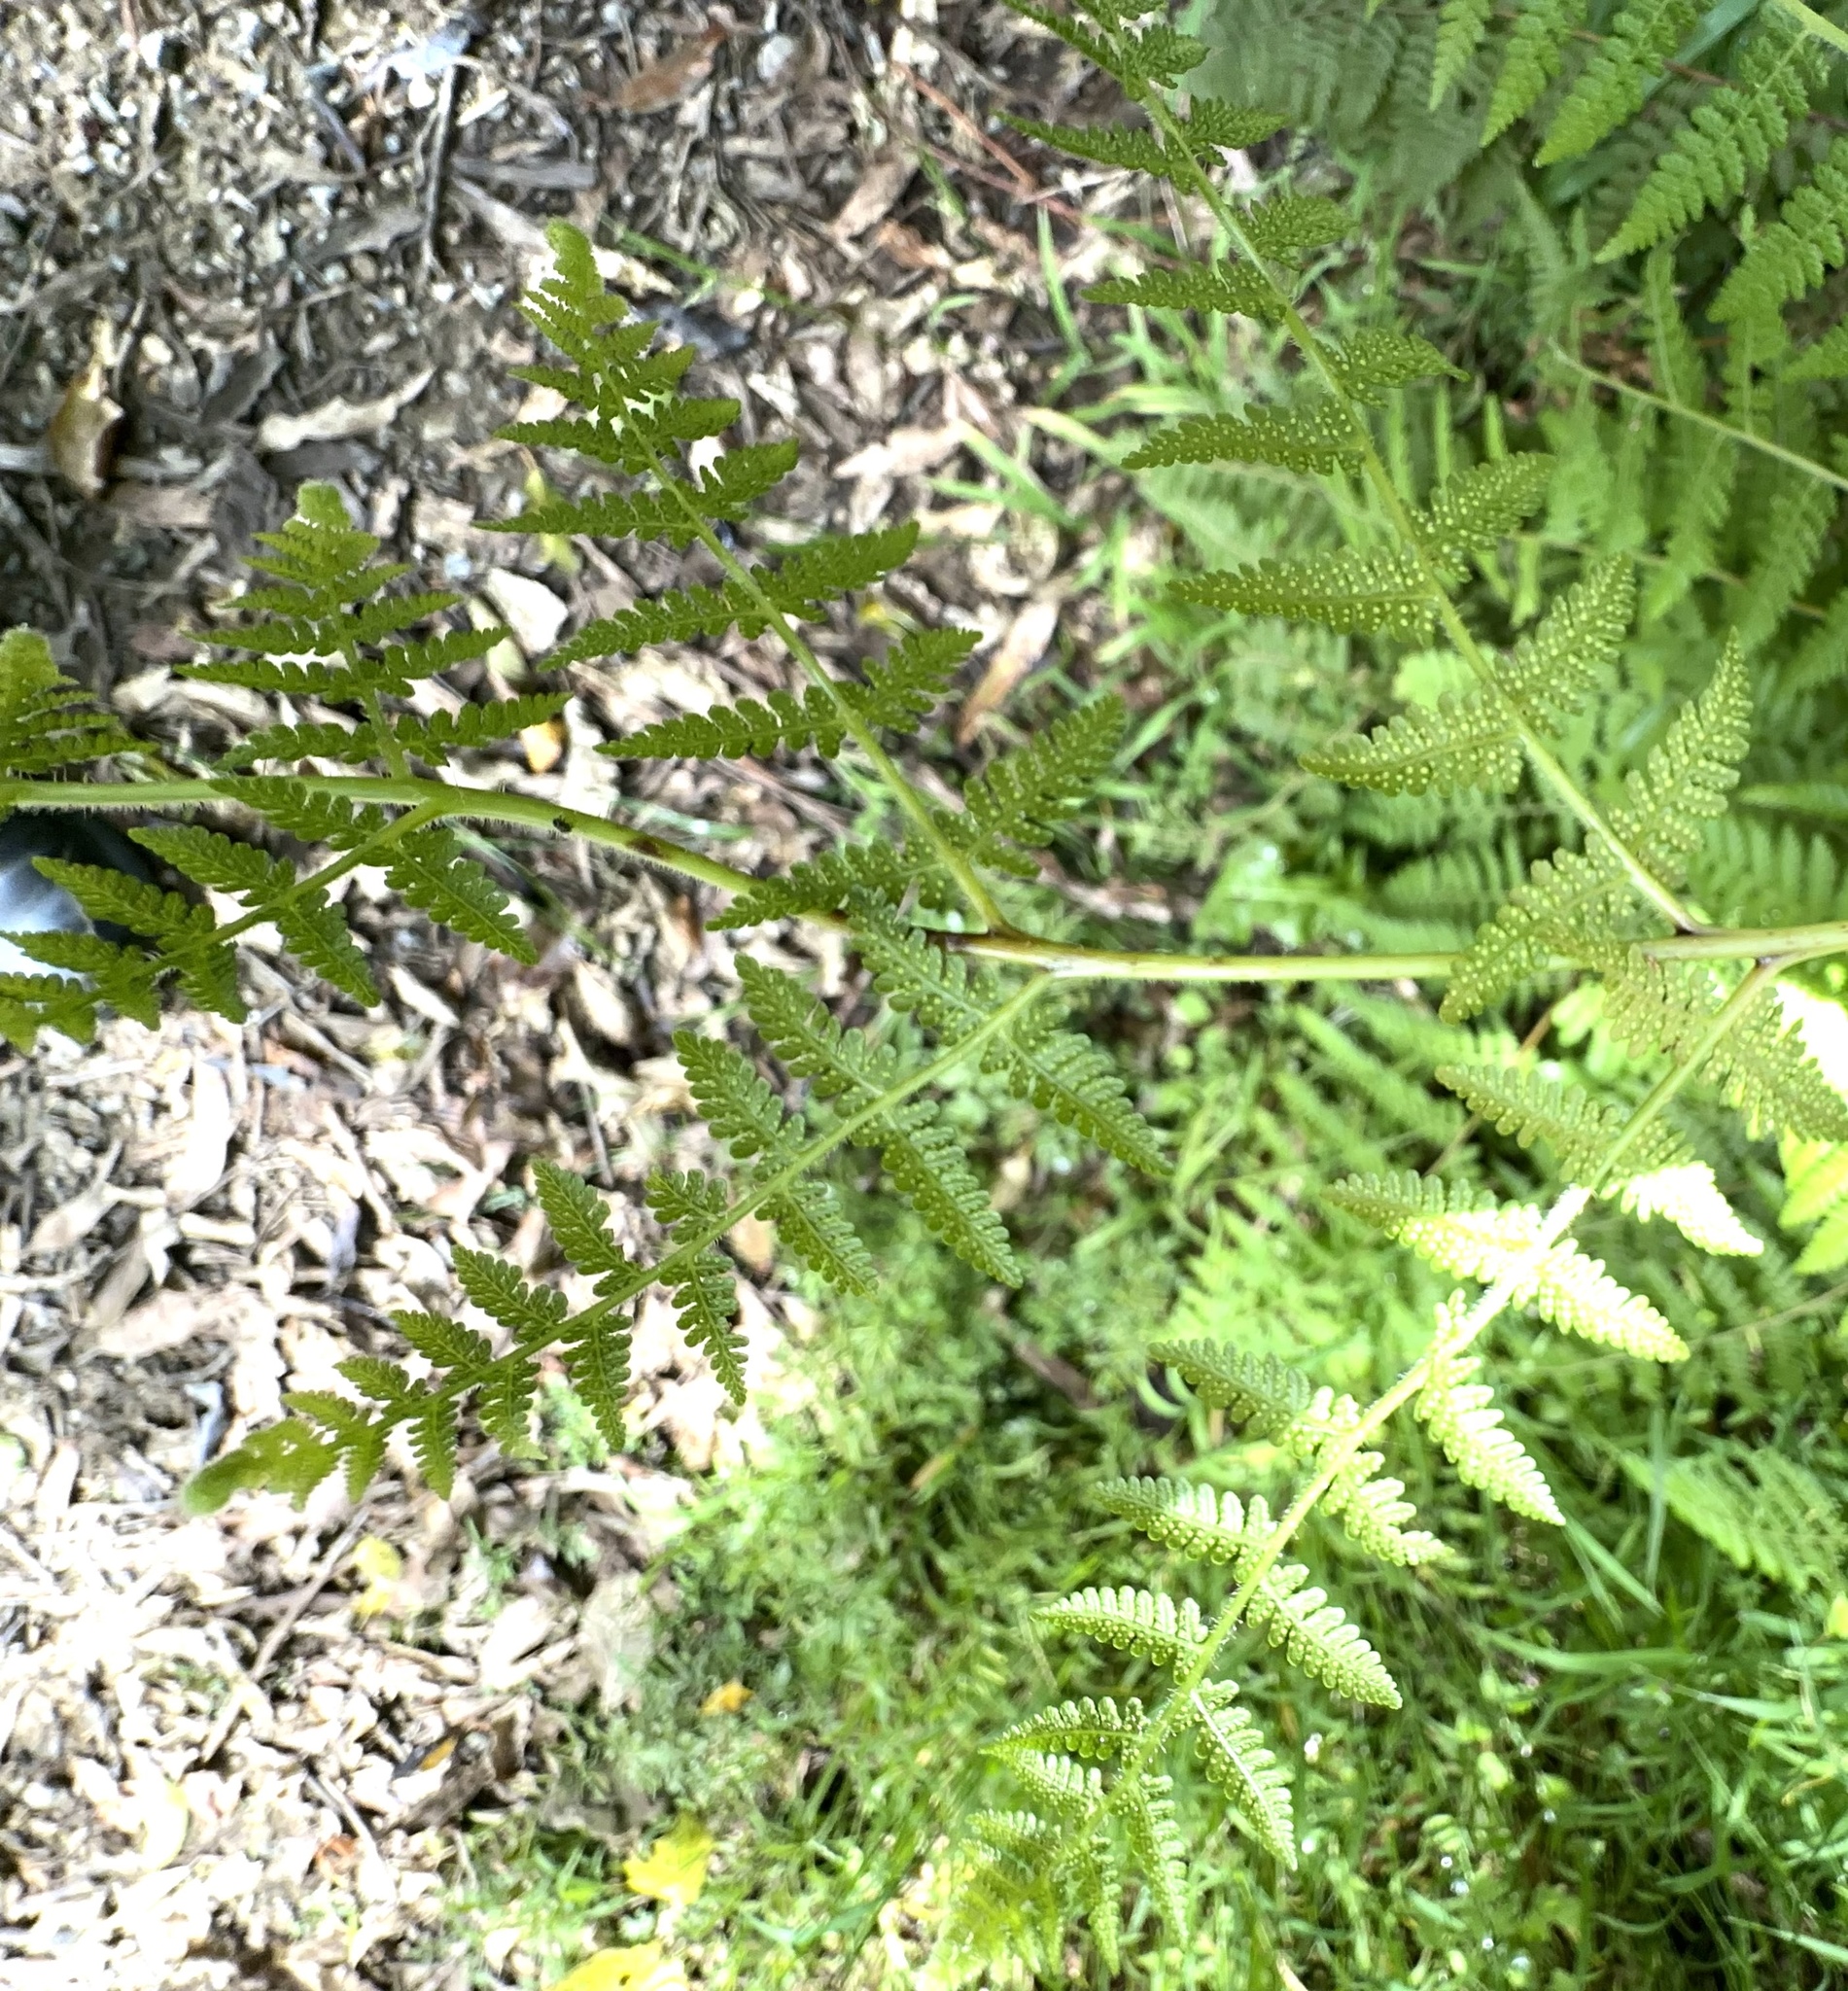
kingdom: Plantae
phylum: Tracheophyta
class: Polypodiopsida
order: Polypodiales
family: Dennstaedtiaceae
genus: Hypolepis
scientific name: Hypolepis ambigua
